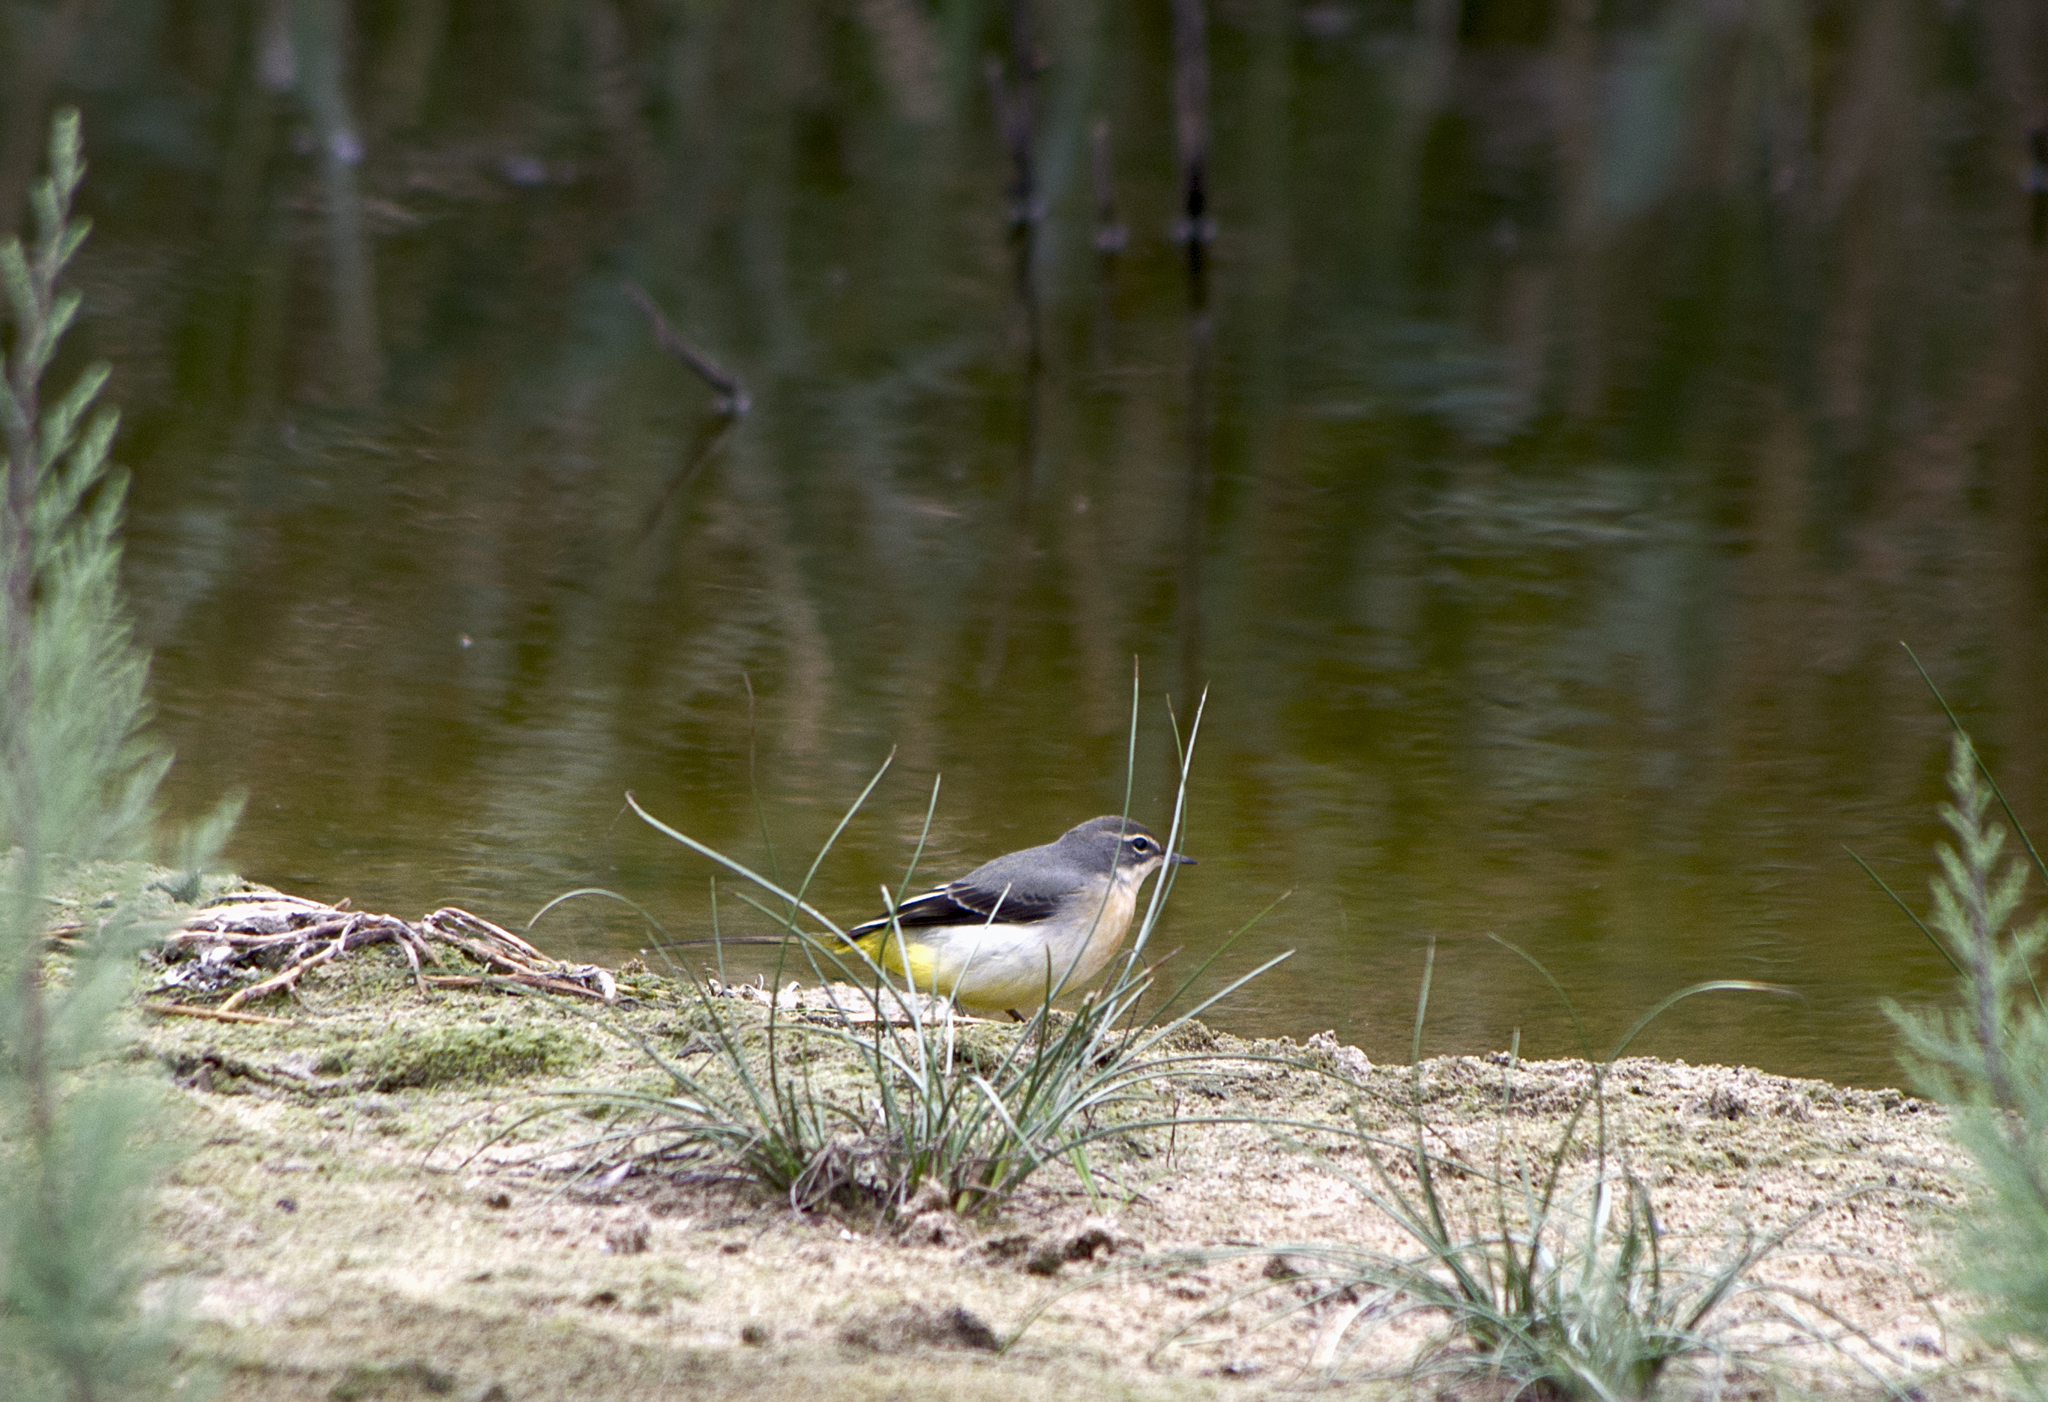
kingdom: Animalia
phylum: Chordata
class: Aves
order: Passeriformes
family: Motacillidae
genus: Motacilla
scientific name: Motacilla cinerea
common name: Grey wagtail
